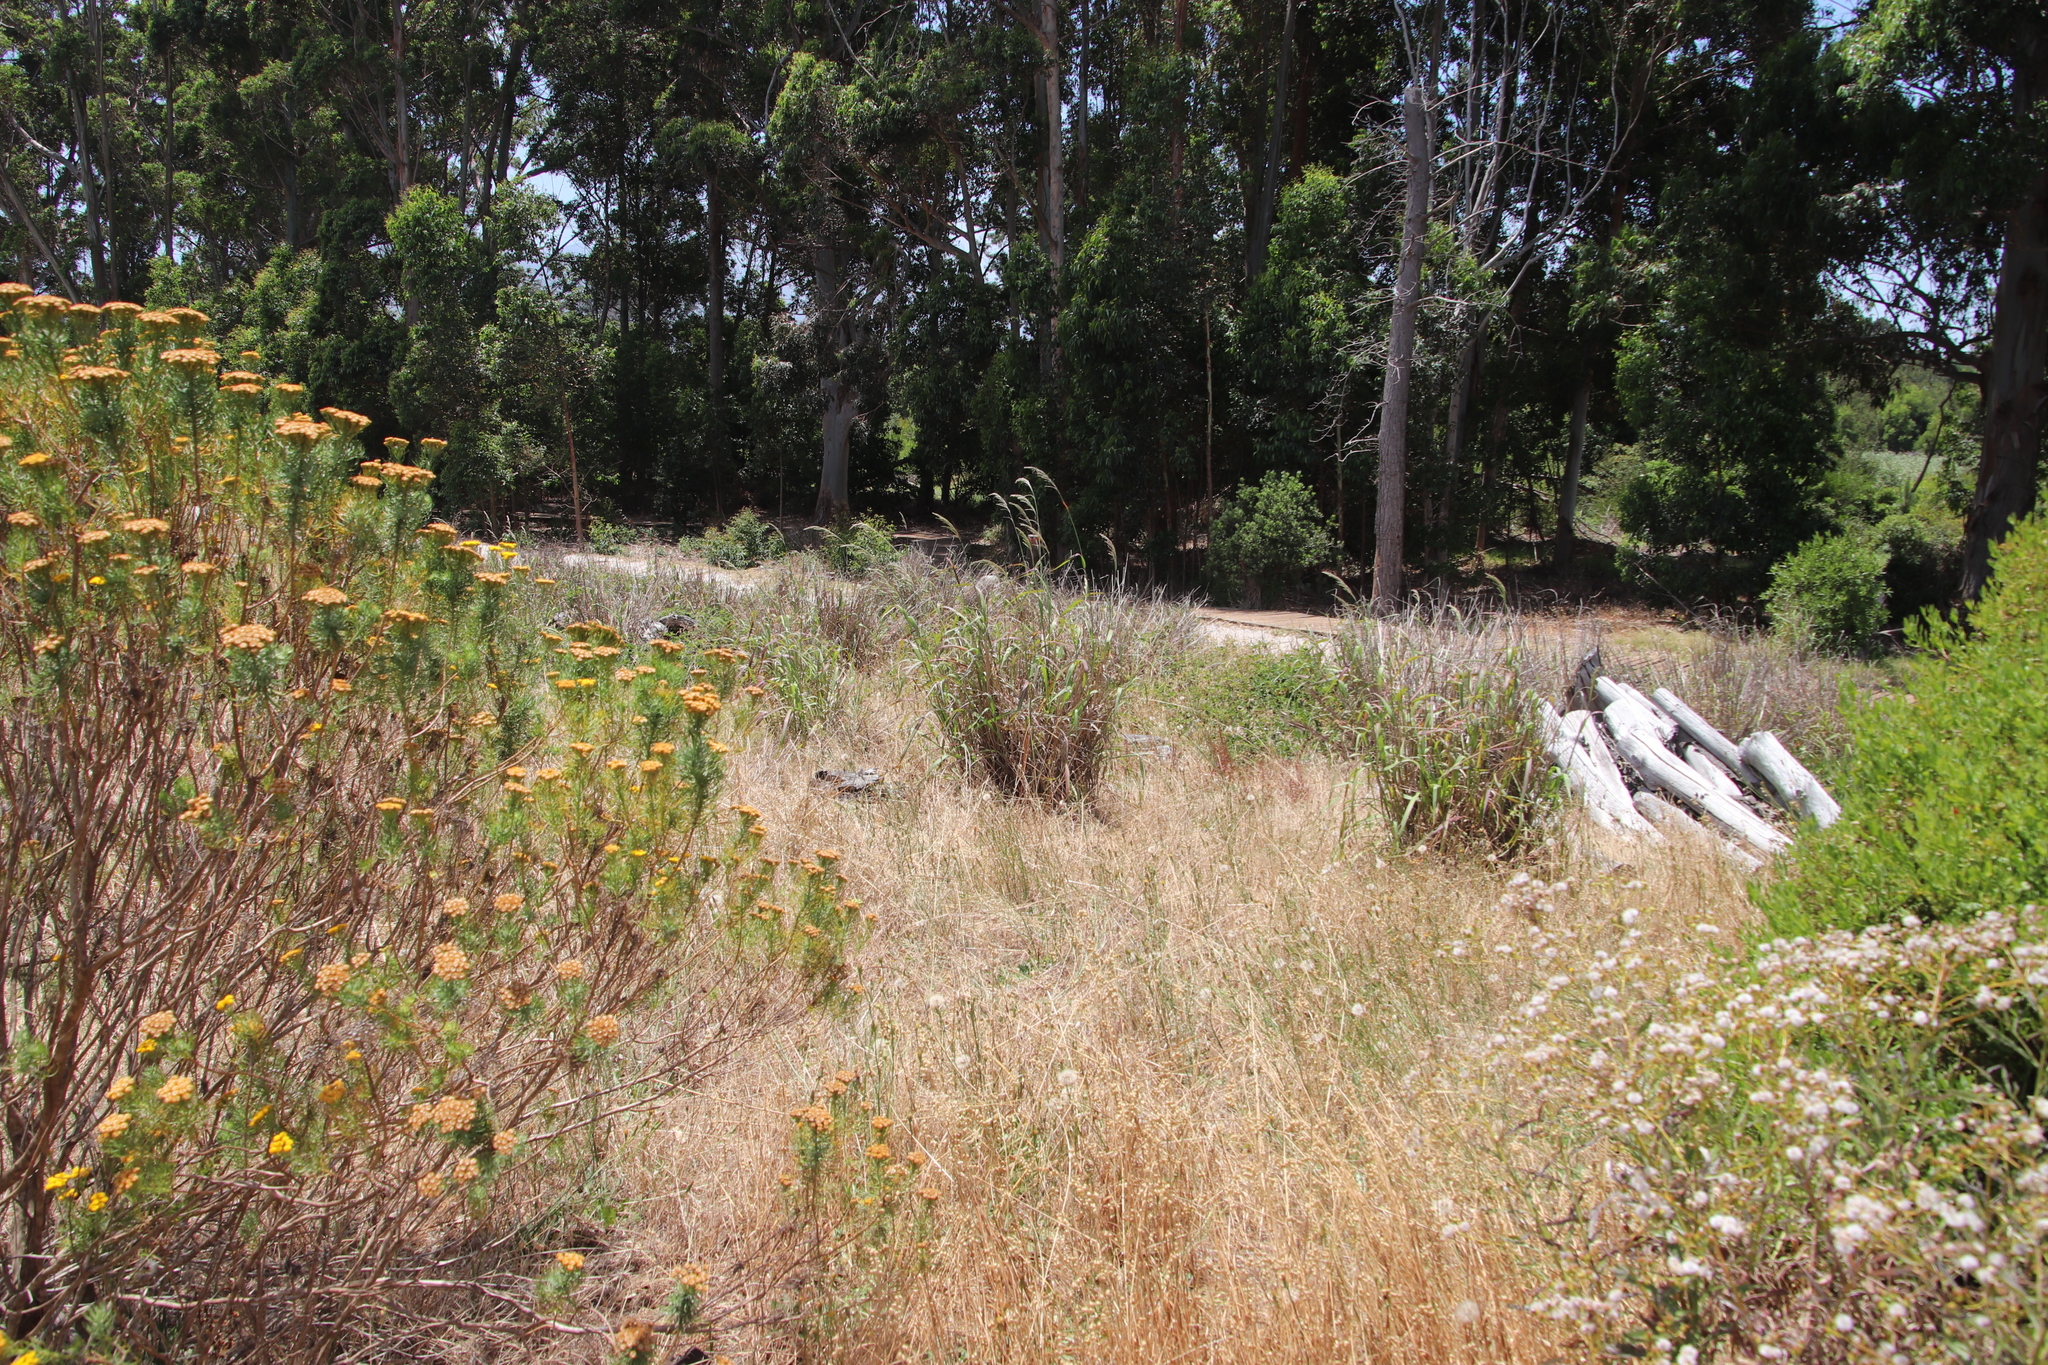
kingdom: Plantae
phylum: Tracheophyta
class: Liliopsida
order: Poales
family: Poaceae
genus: Paspalum
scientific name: Paspalum urvillei
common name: Vasey's grass
